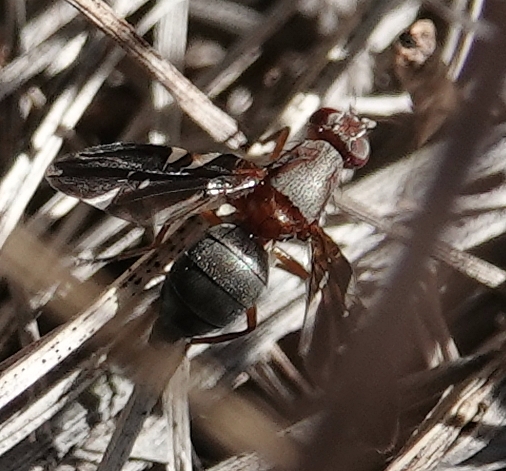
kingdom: Animalia
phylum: Arthropoda
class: Insecta
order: Diptera
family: Ulidiidae
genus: Delphinia
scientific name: Delphinia picta
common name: Common picture-winged fly
